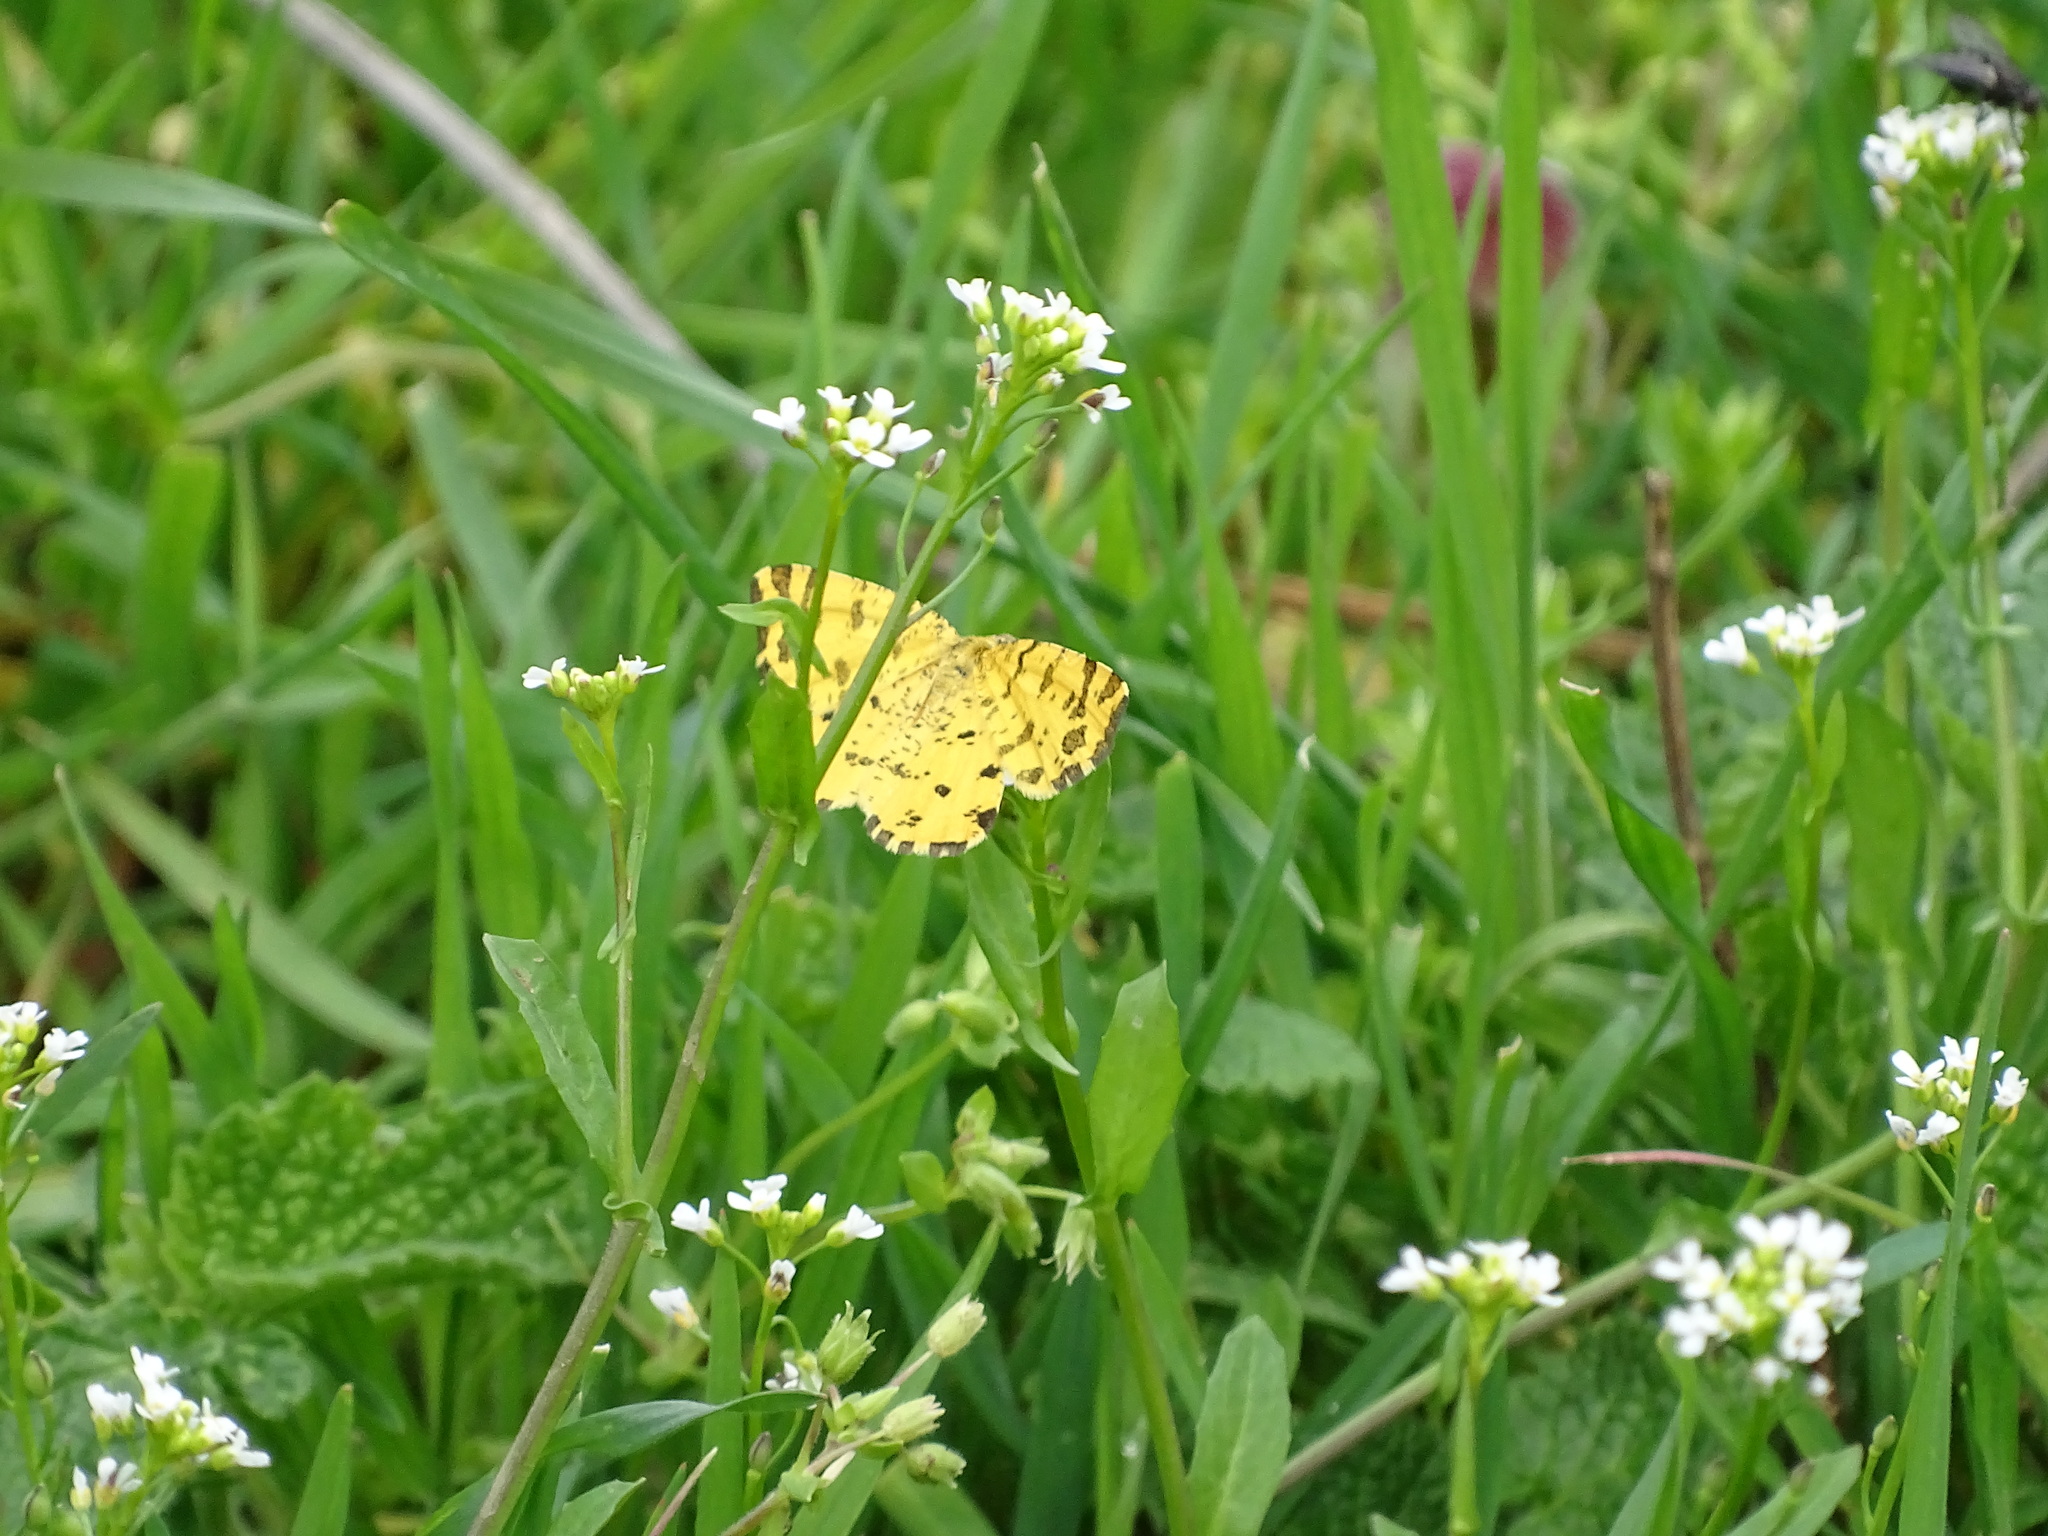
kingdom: Animalia
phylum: Arthropoda
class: Insecta
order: Lepidoptera
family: Geometridae
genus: Pseudopanthera
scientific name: Pseudopanthera macularia
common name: Speckled yellow
